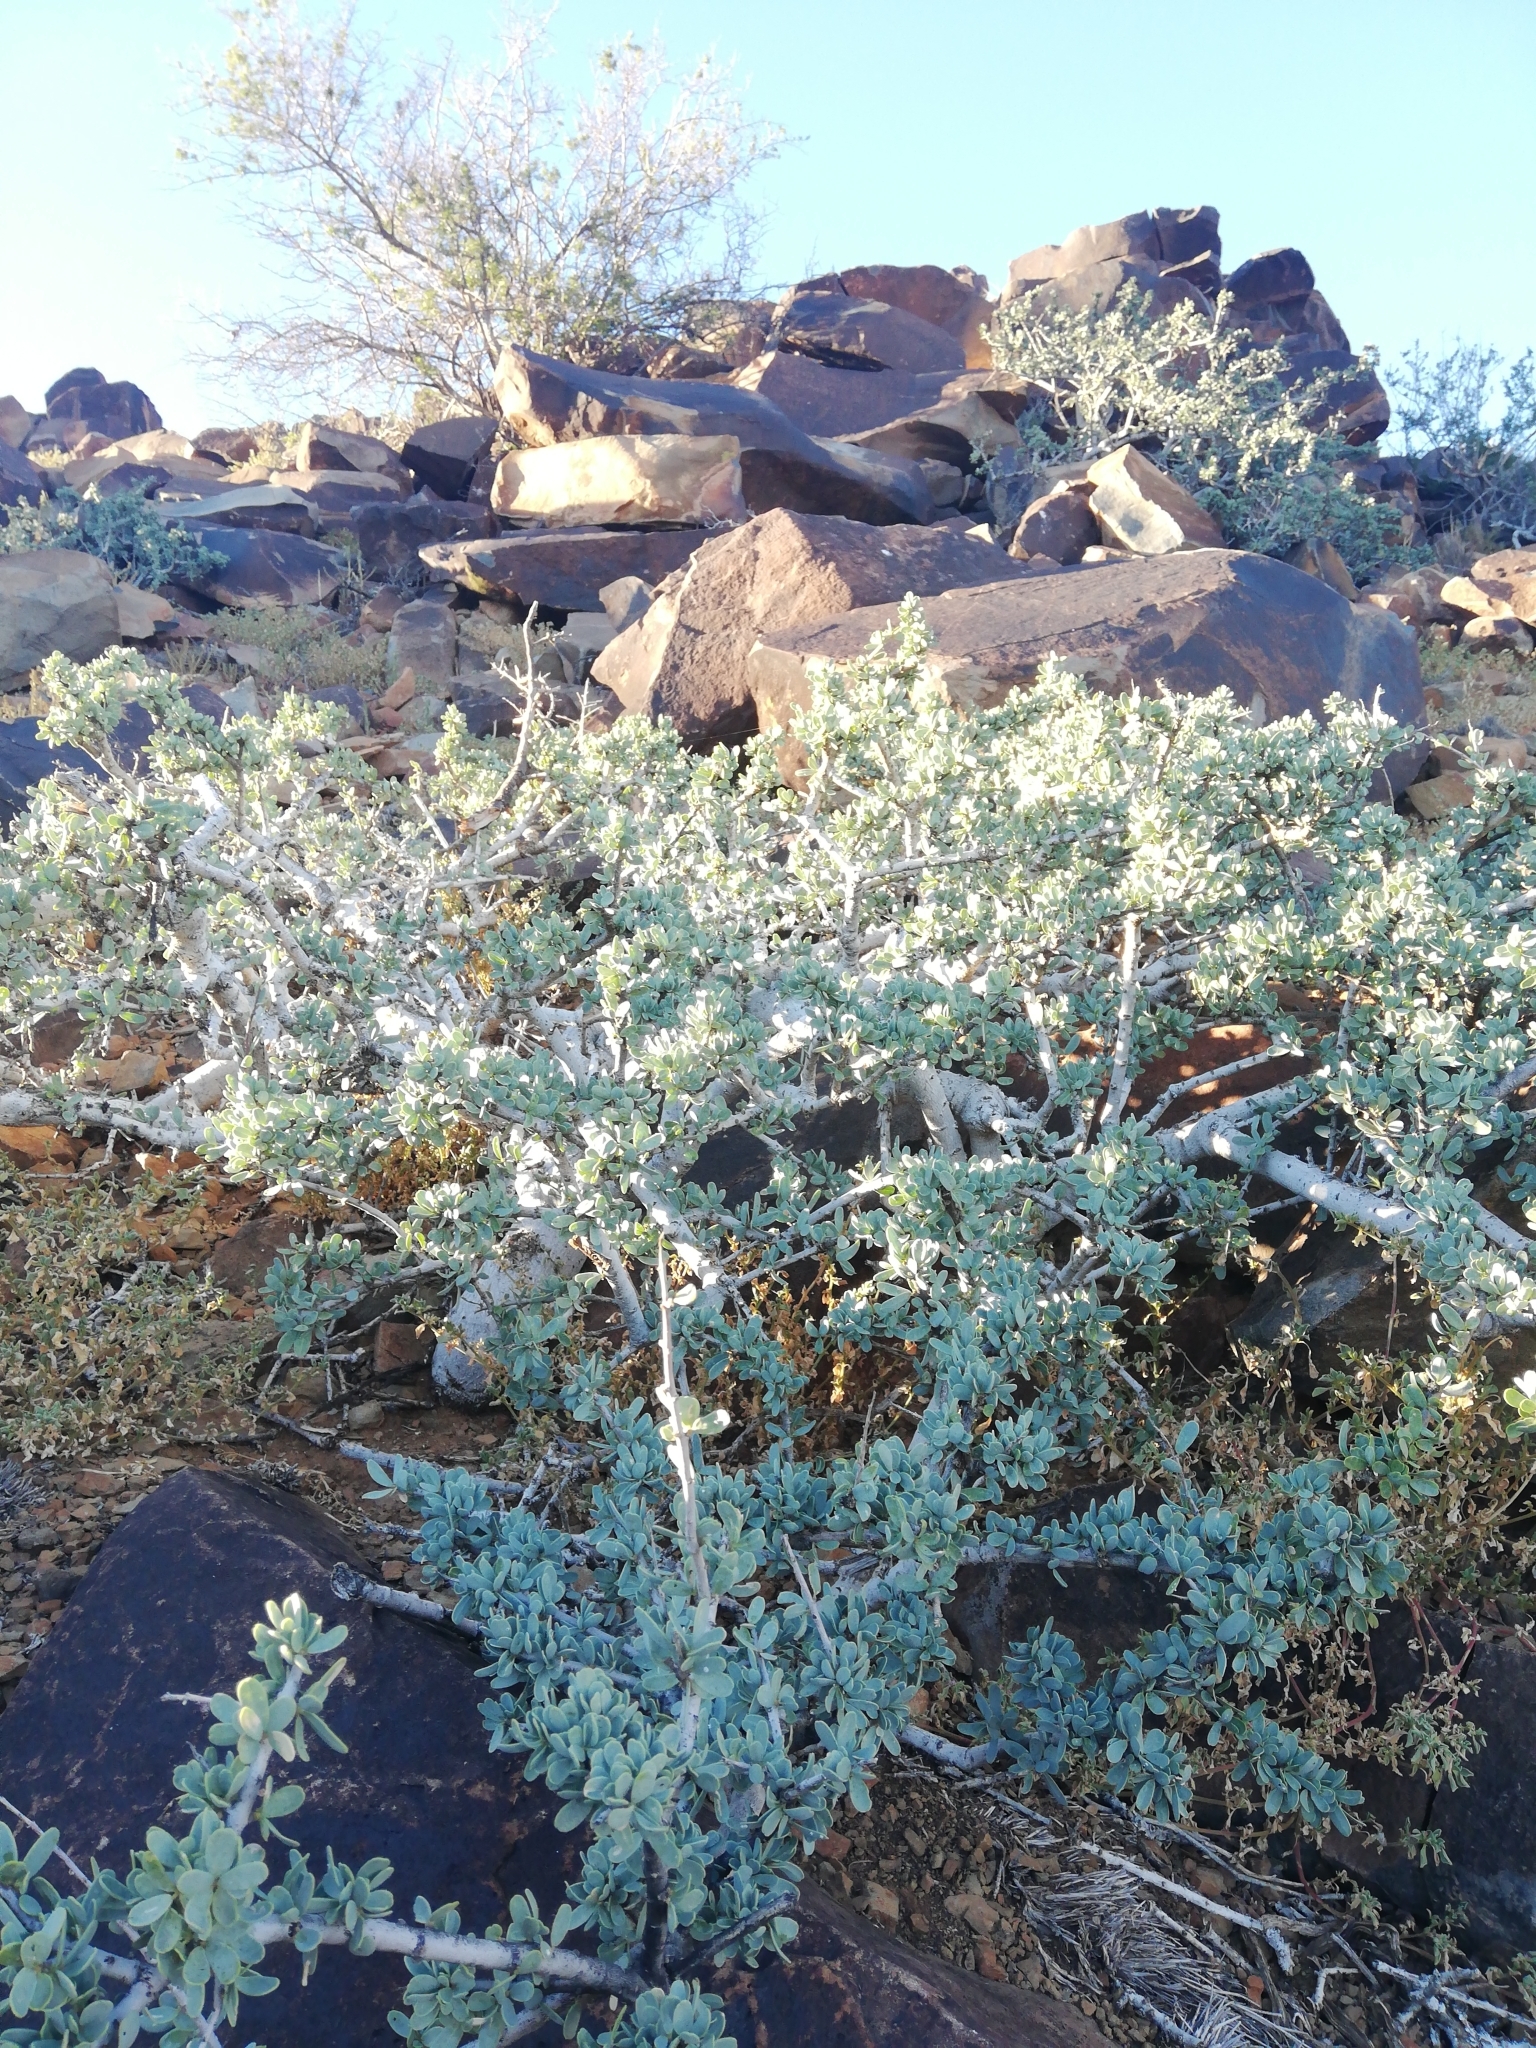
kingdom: Plantae
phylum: Tracheophyta
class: Magnoliopsida
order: Brassicales
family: Capparaceae
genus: Boscia
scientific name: Boscia oleoides
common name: Karoo shepherd tree
